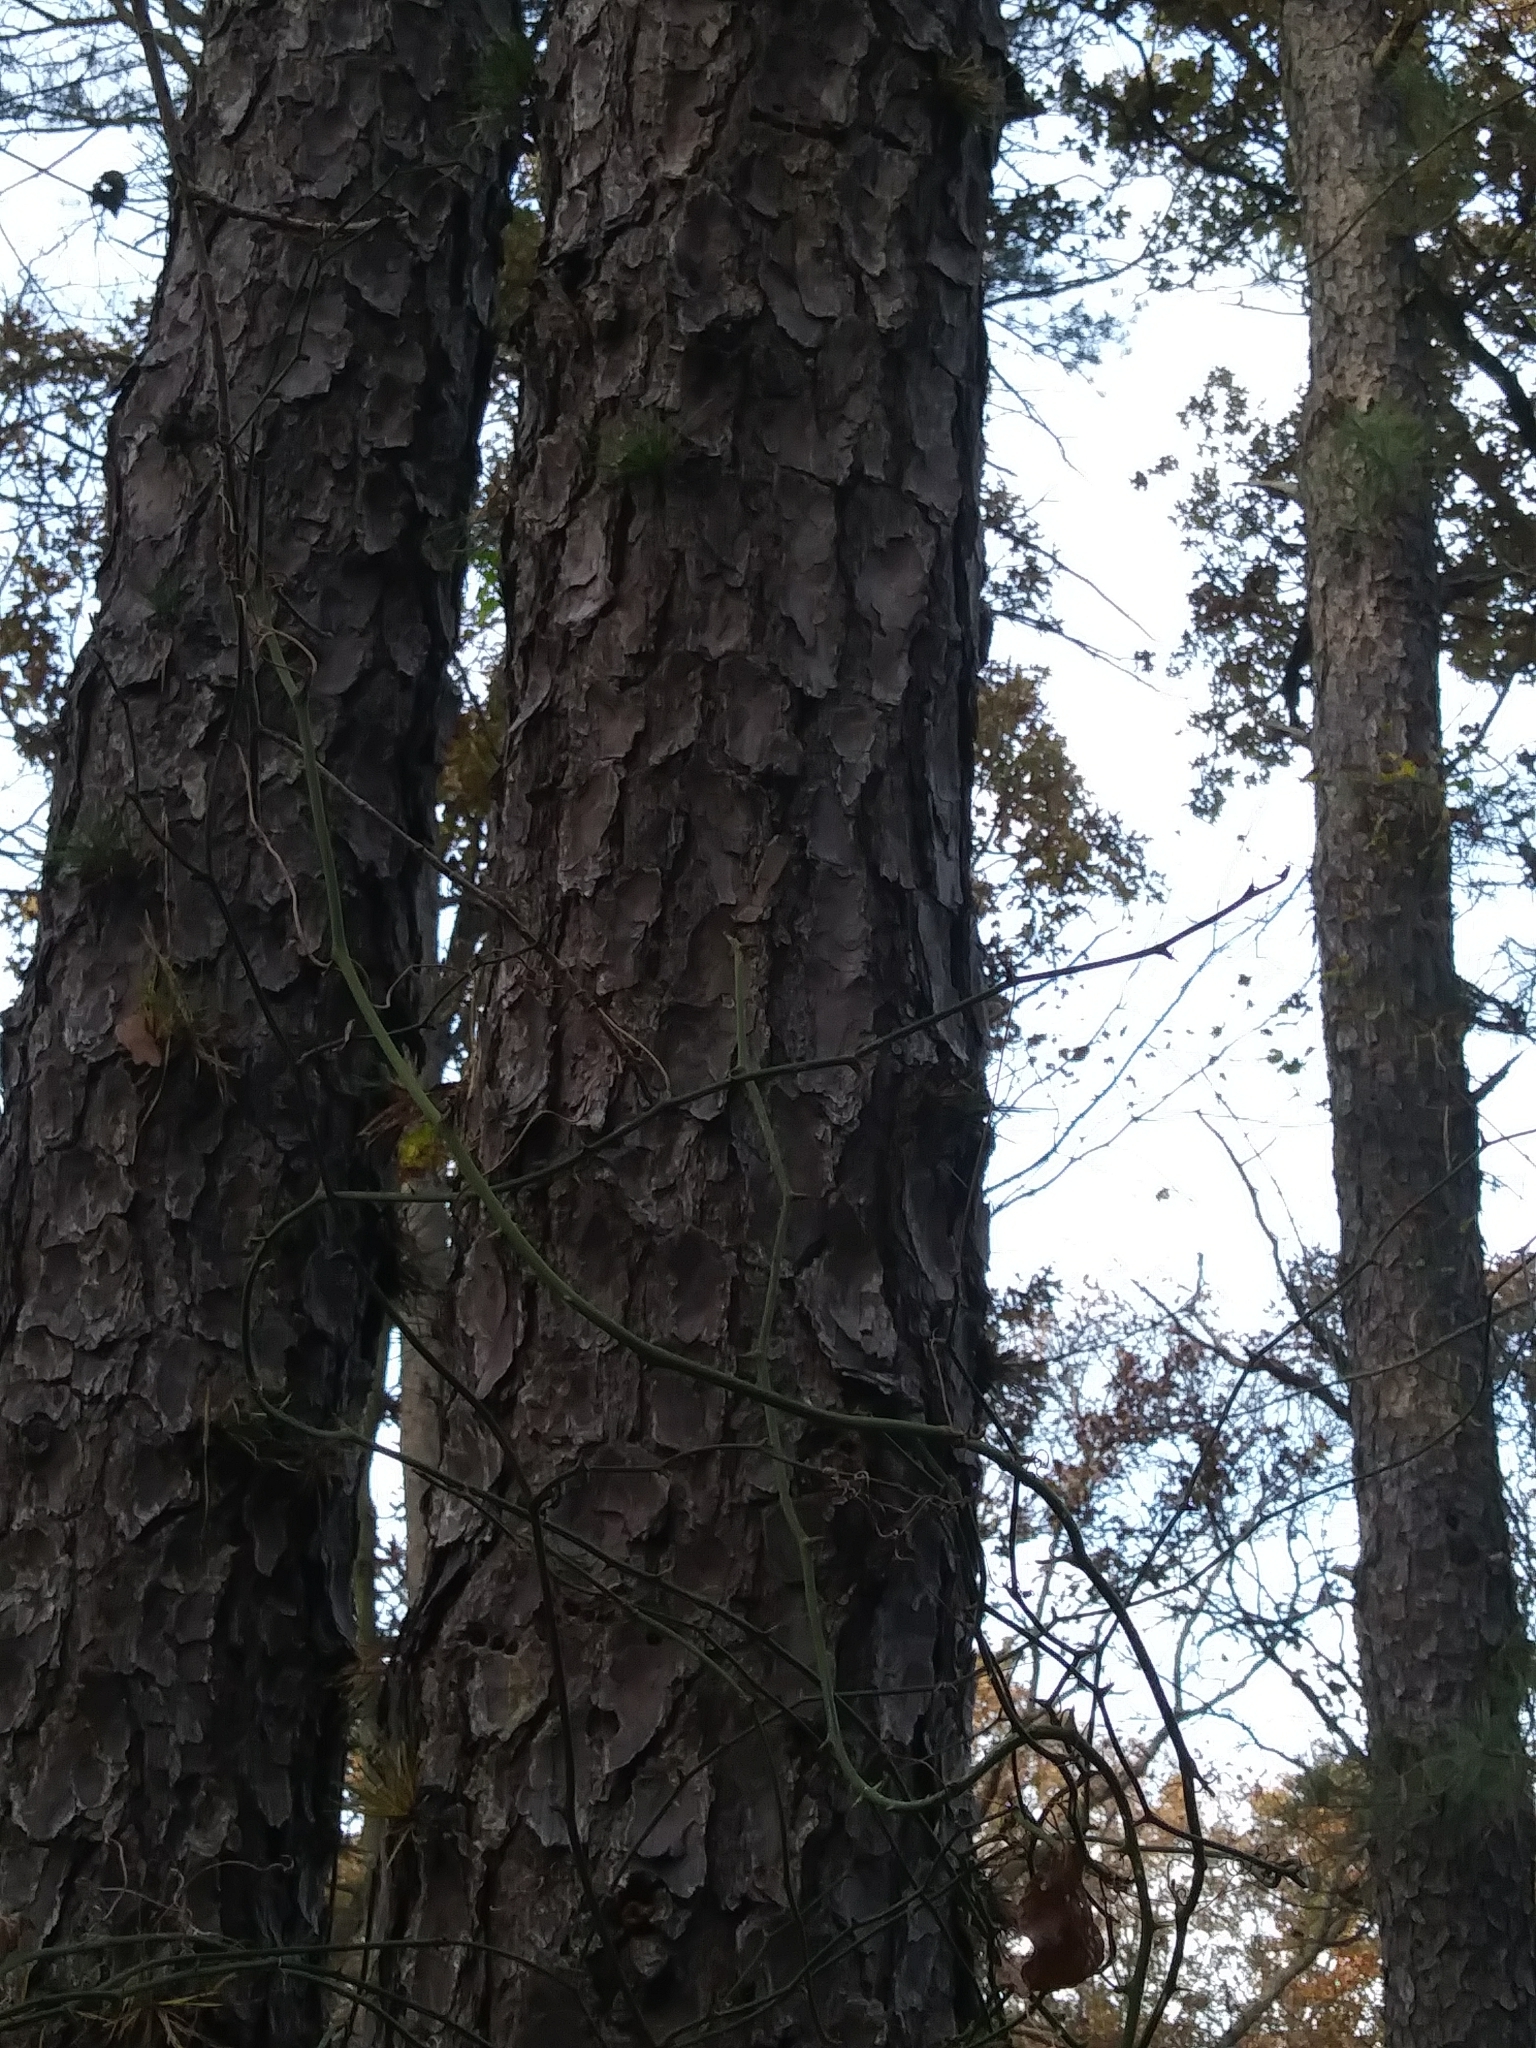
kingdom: Plantae
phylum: Tracheophyta
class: Pinopsida
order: Pinales
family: Pinaceae
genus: Pinus
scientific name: Pinus rigida
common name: Pitch pine
